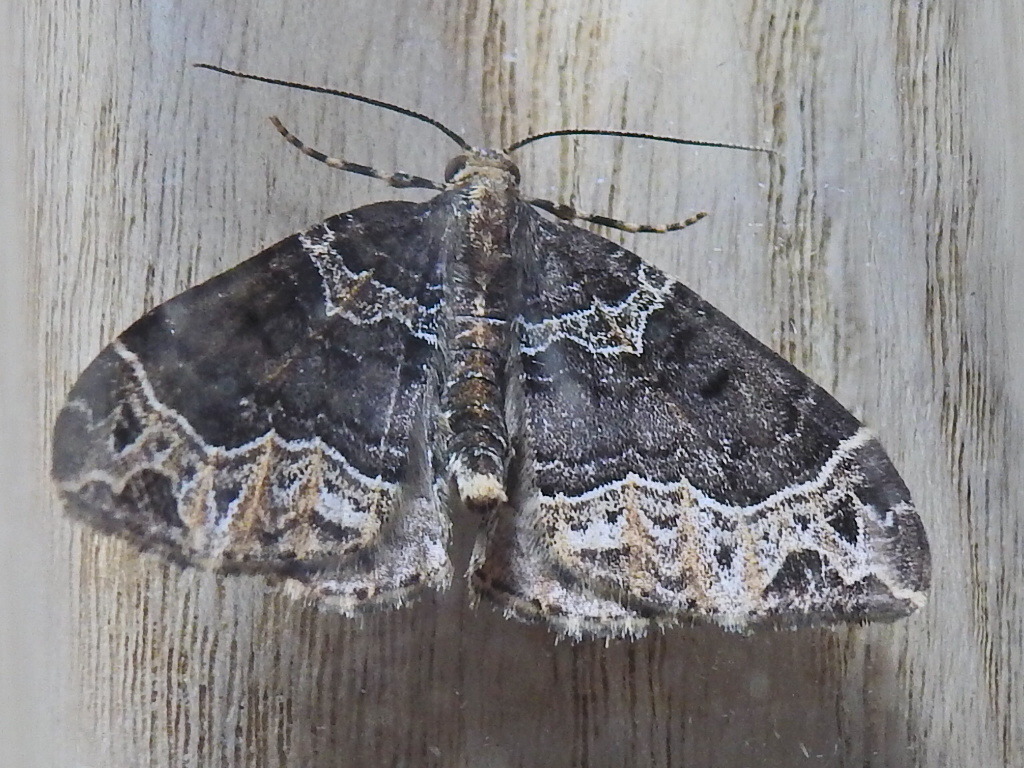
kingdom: Animalia
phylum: Arthropoda
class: Insecta
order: Lepidoptera
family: Geometridae
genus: Ecliptopera
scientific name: Ecliptopera silaceata
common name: Small phoenix
